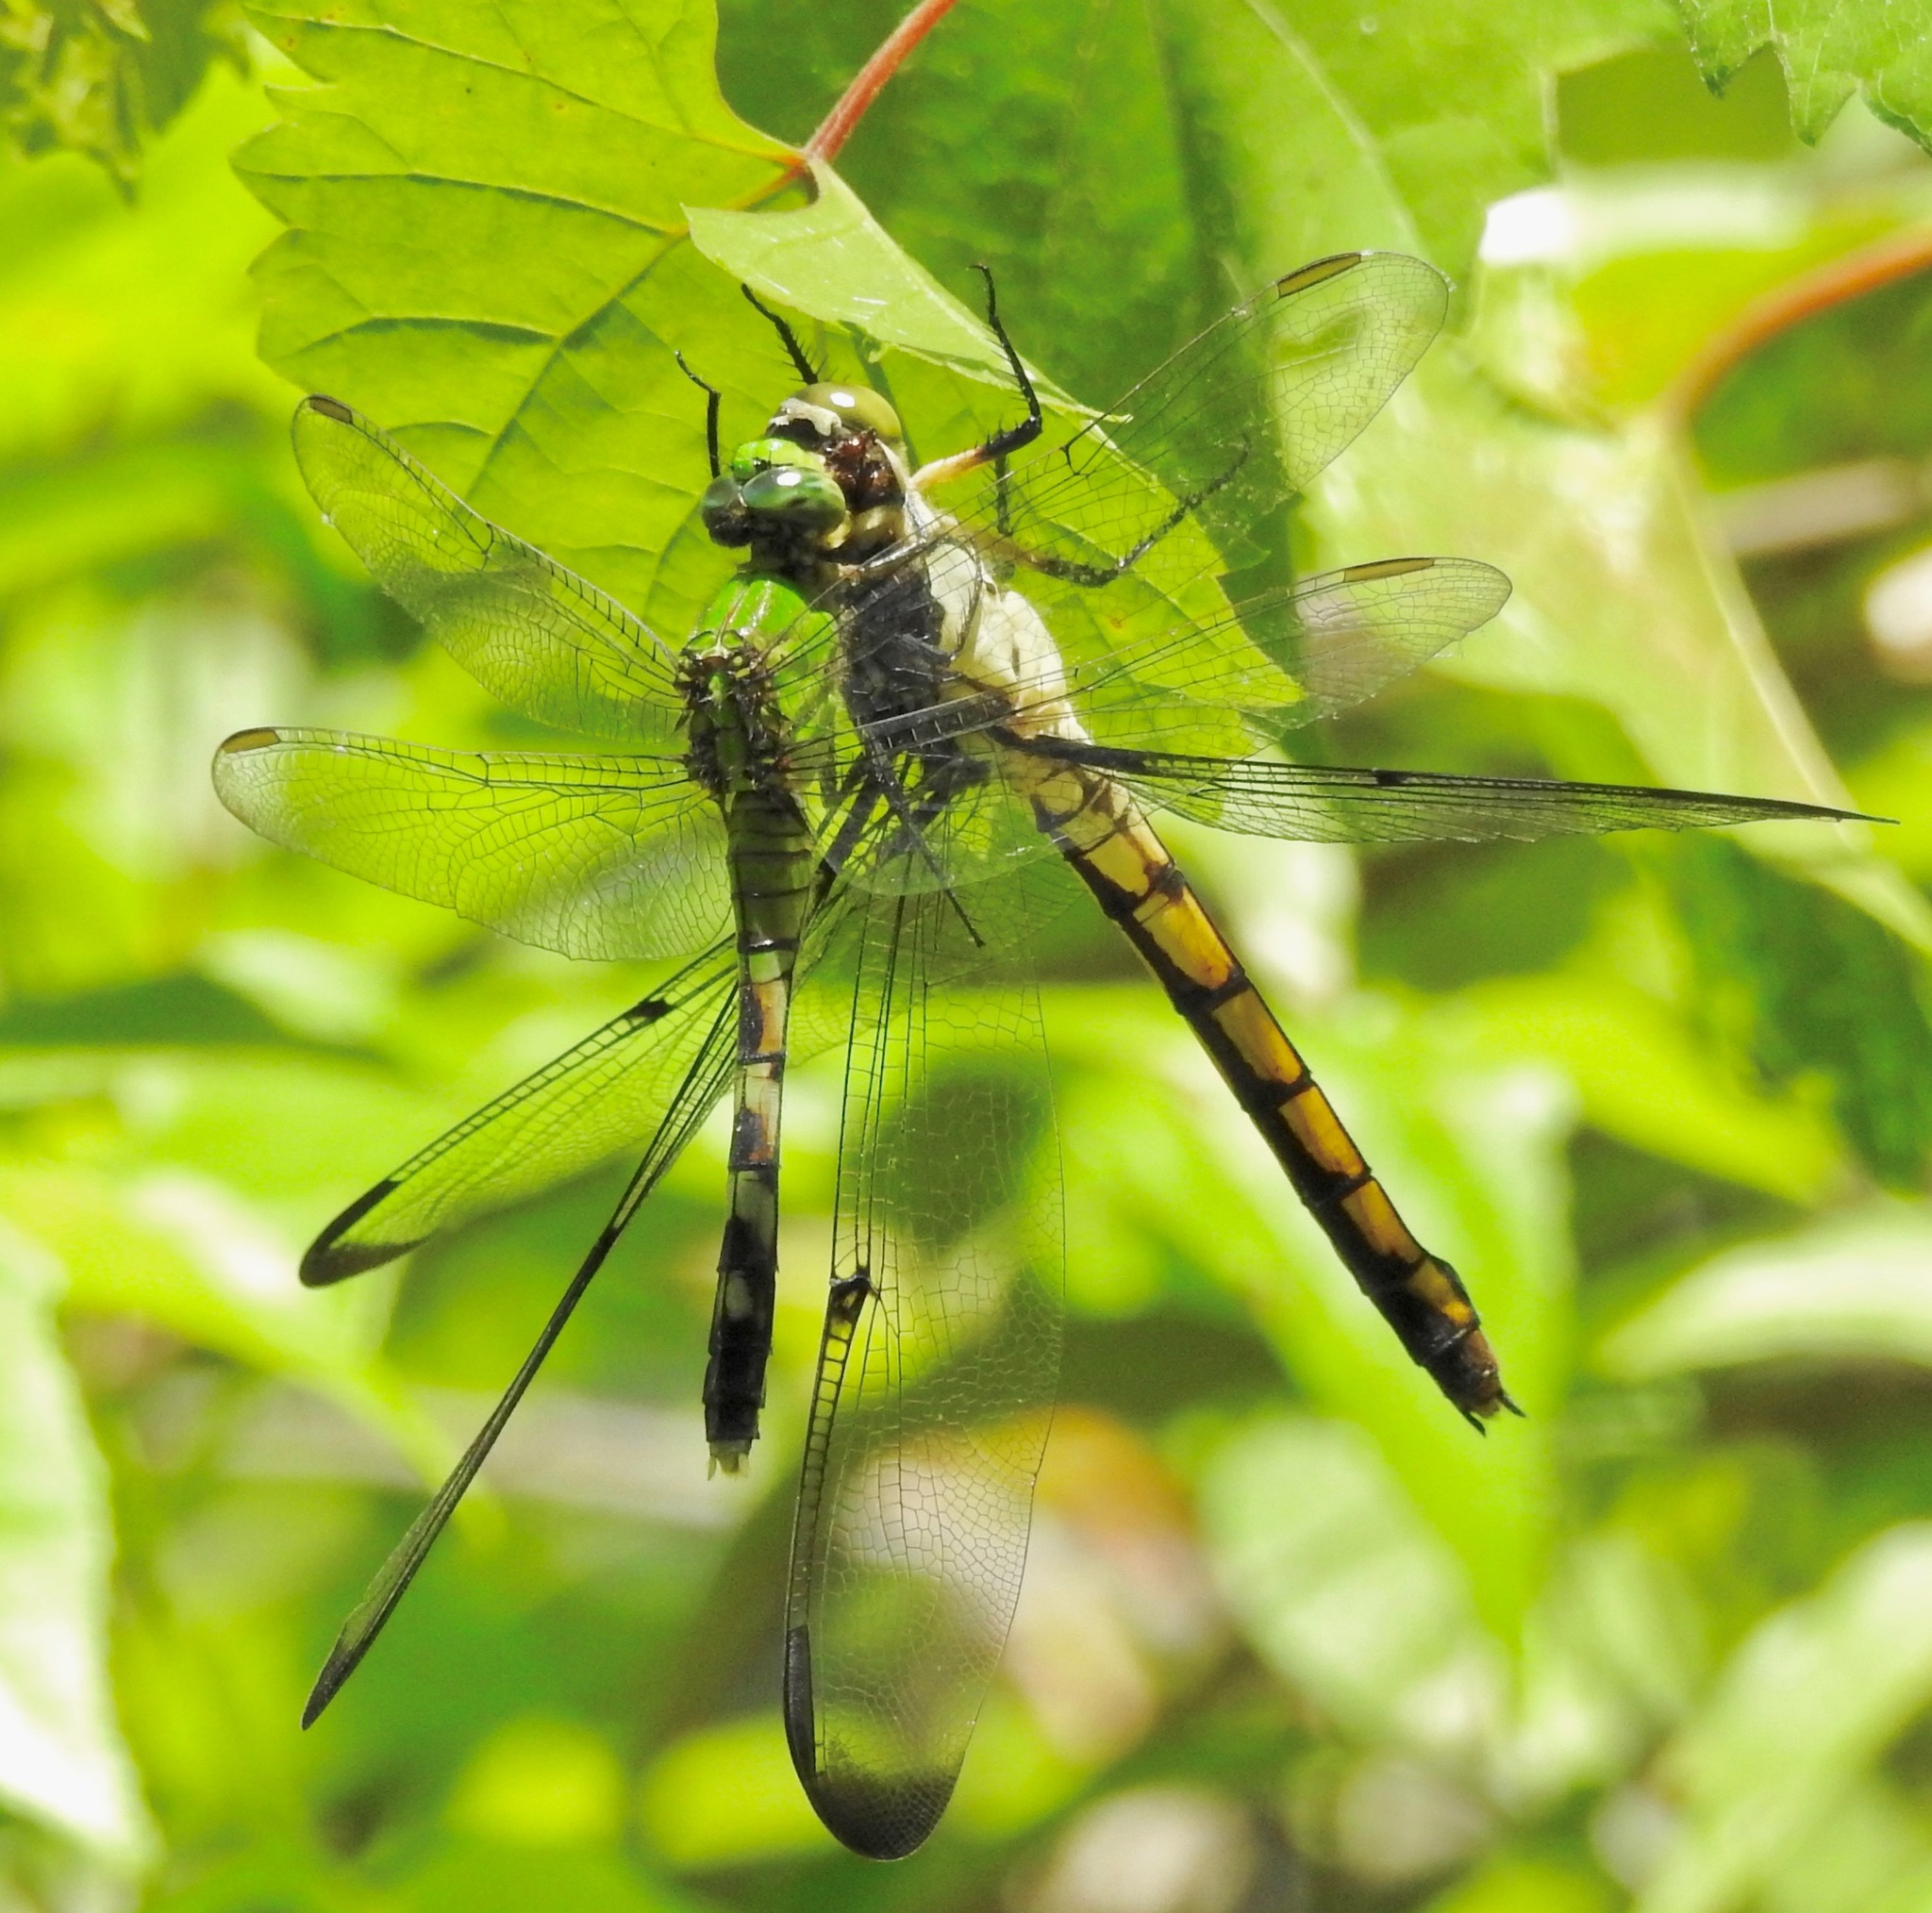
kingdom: Animalia
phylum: Arthropoda
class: Insecta
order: Odonata
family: Libellulidae
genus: Erythemis
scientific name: Erythemis simplicicollis
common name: Eastern pondhawk
